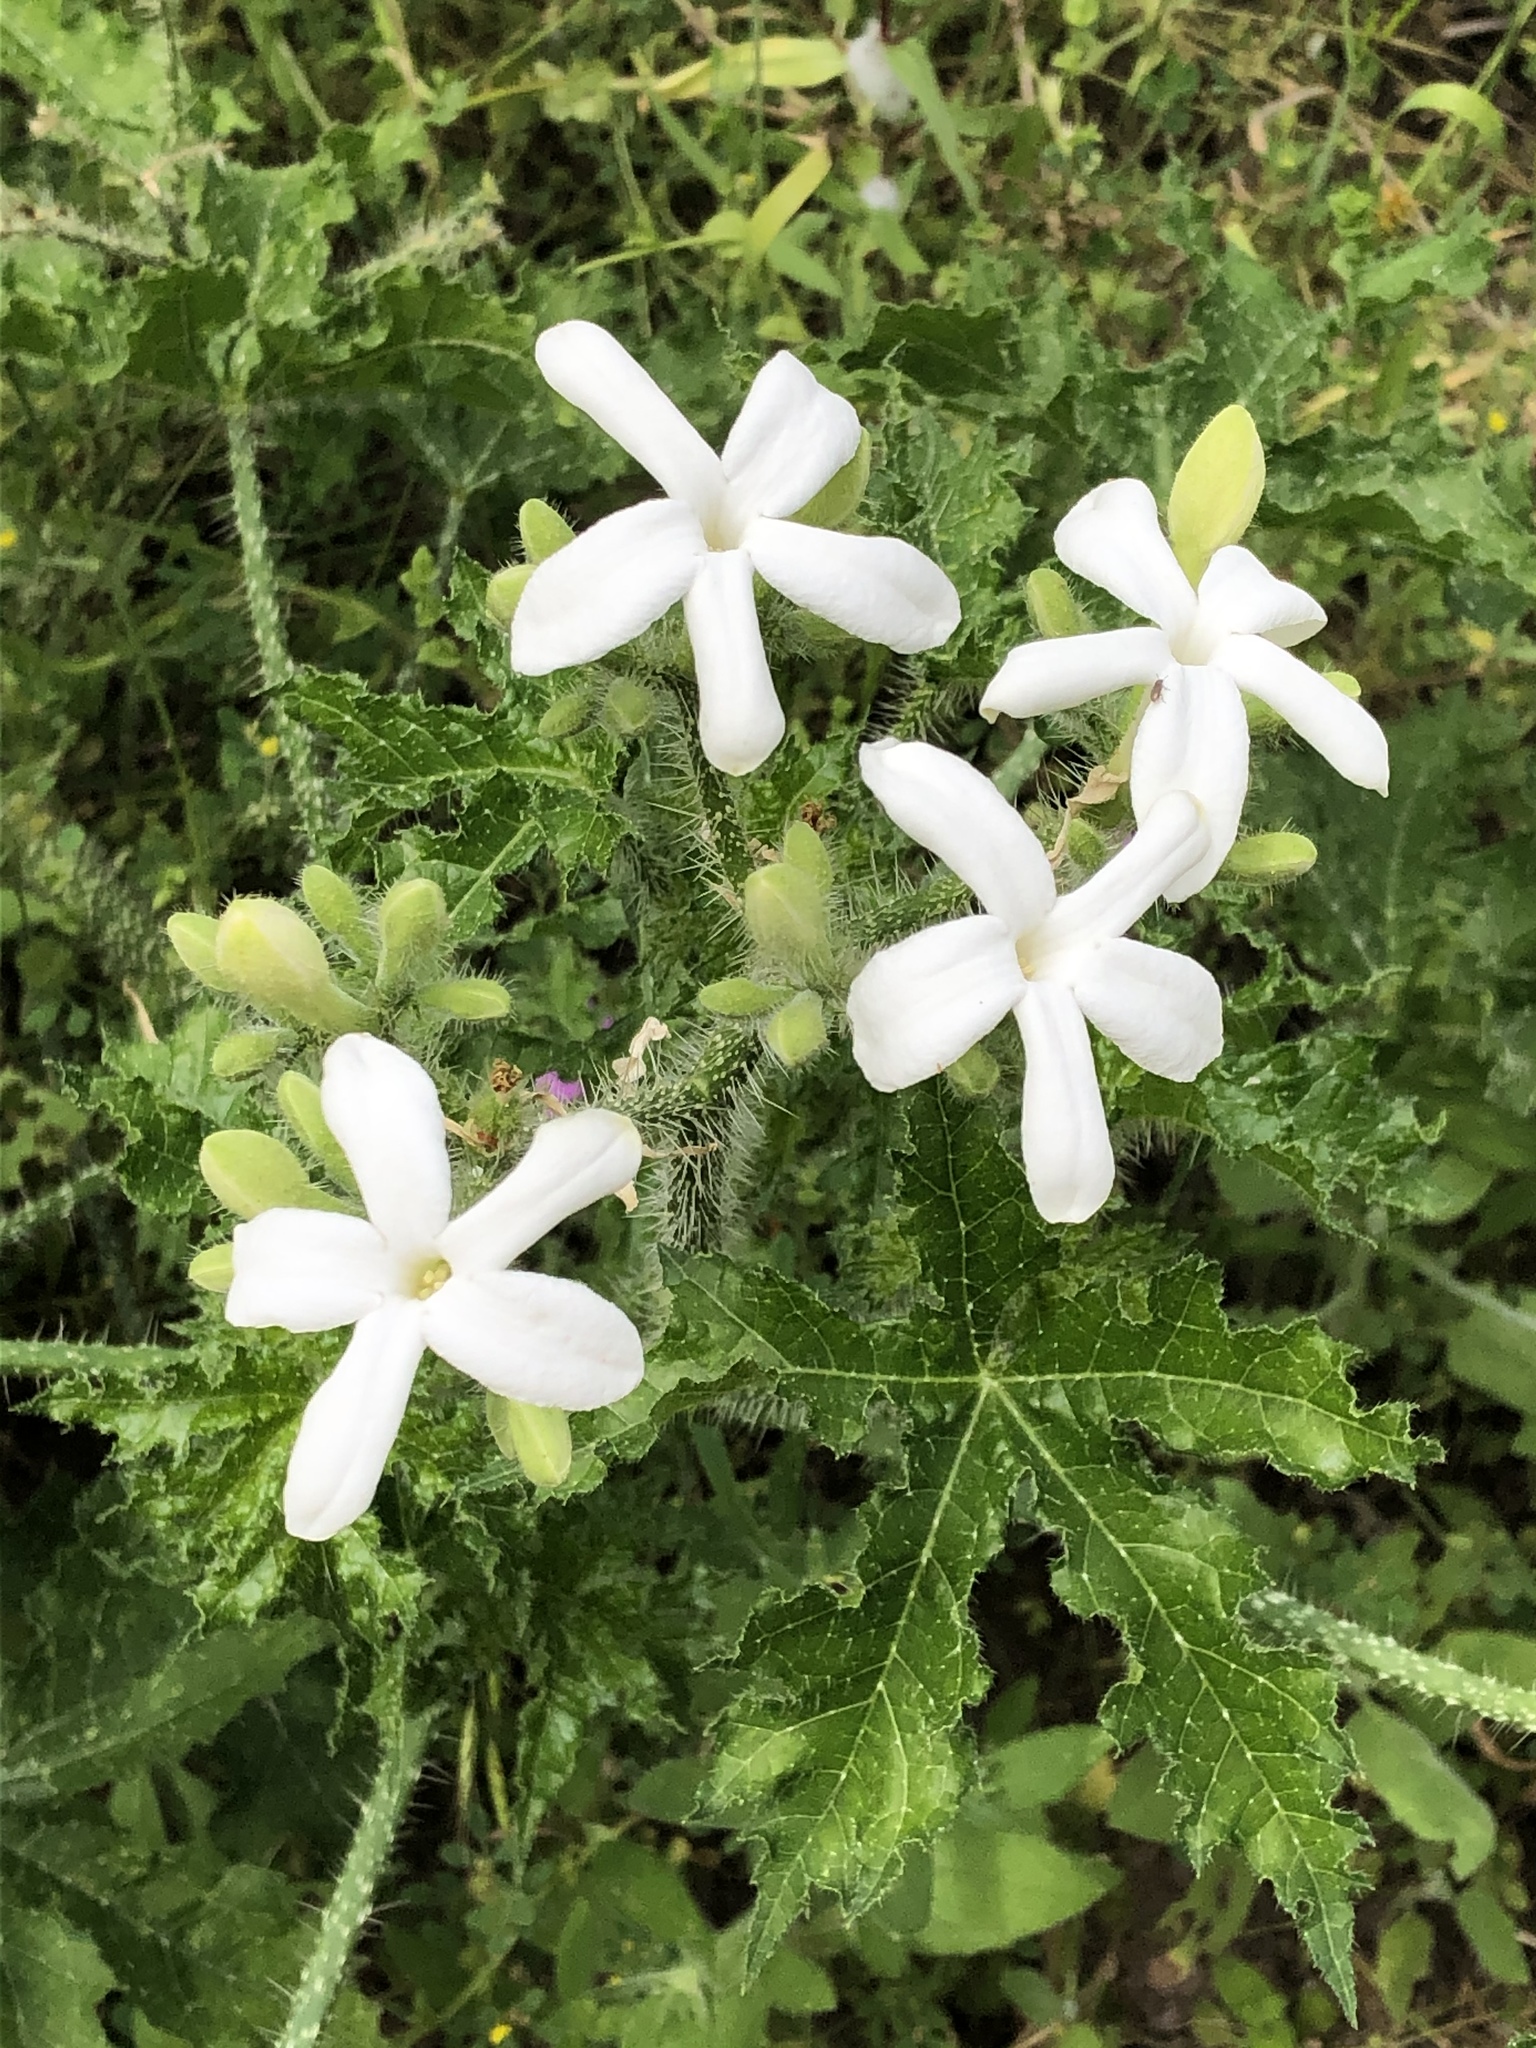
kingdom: Plantae
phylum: Tracheophyta
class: Magnoliopsida
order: Malpighiales
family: Euphorbiaceae
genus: Cnidoscolus
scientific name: Cnidoscolus texanus
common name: Texas bull-nettle
